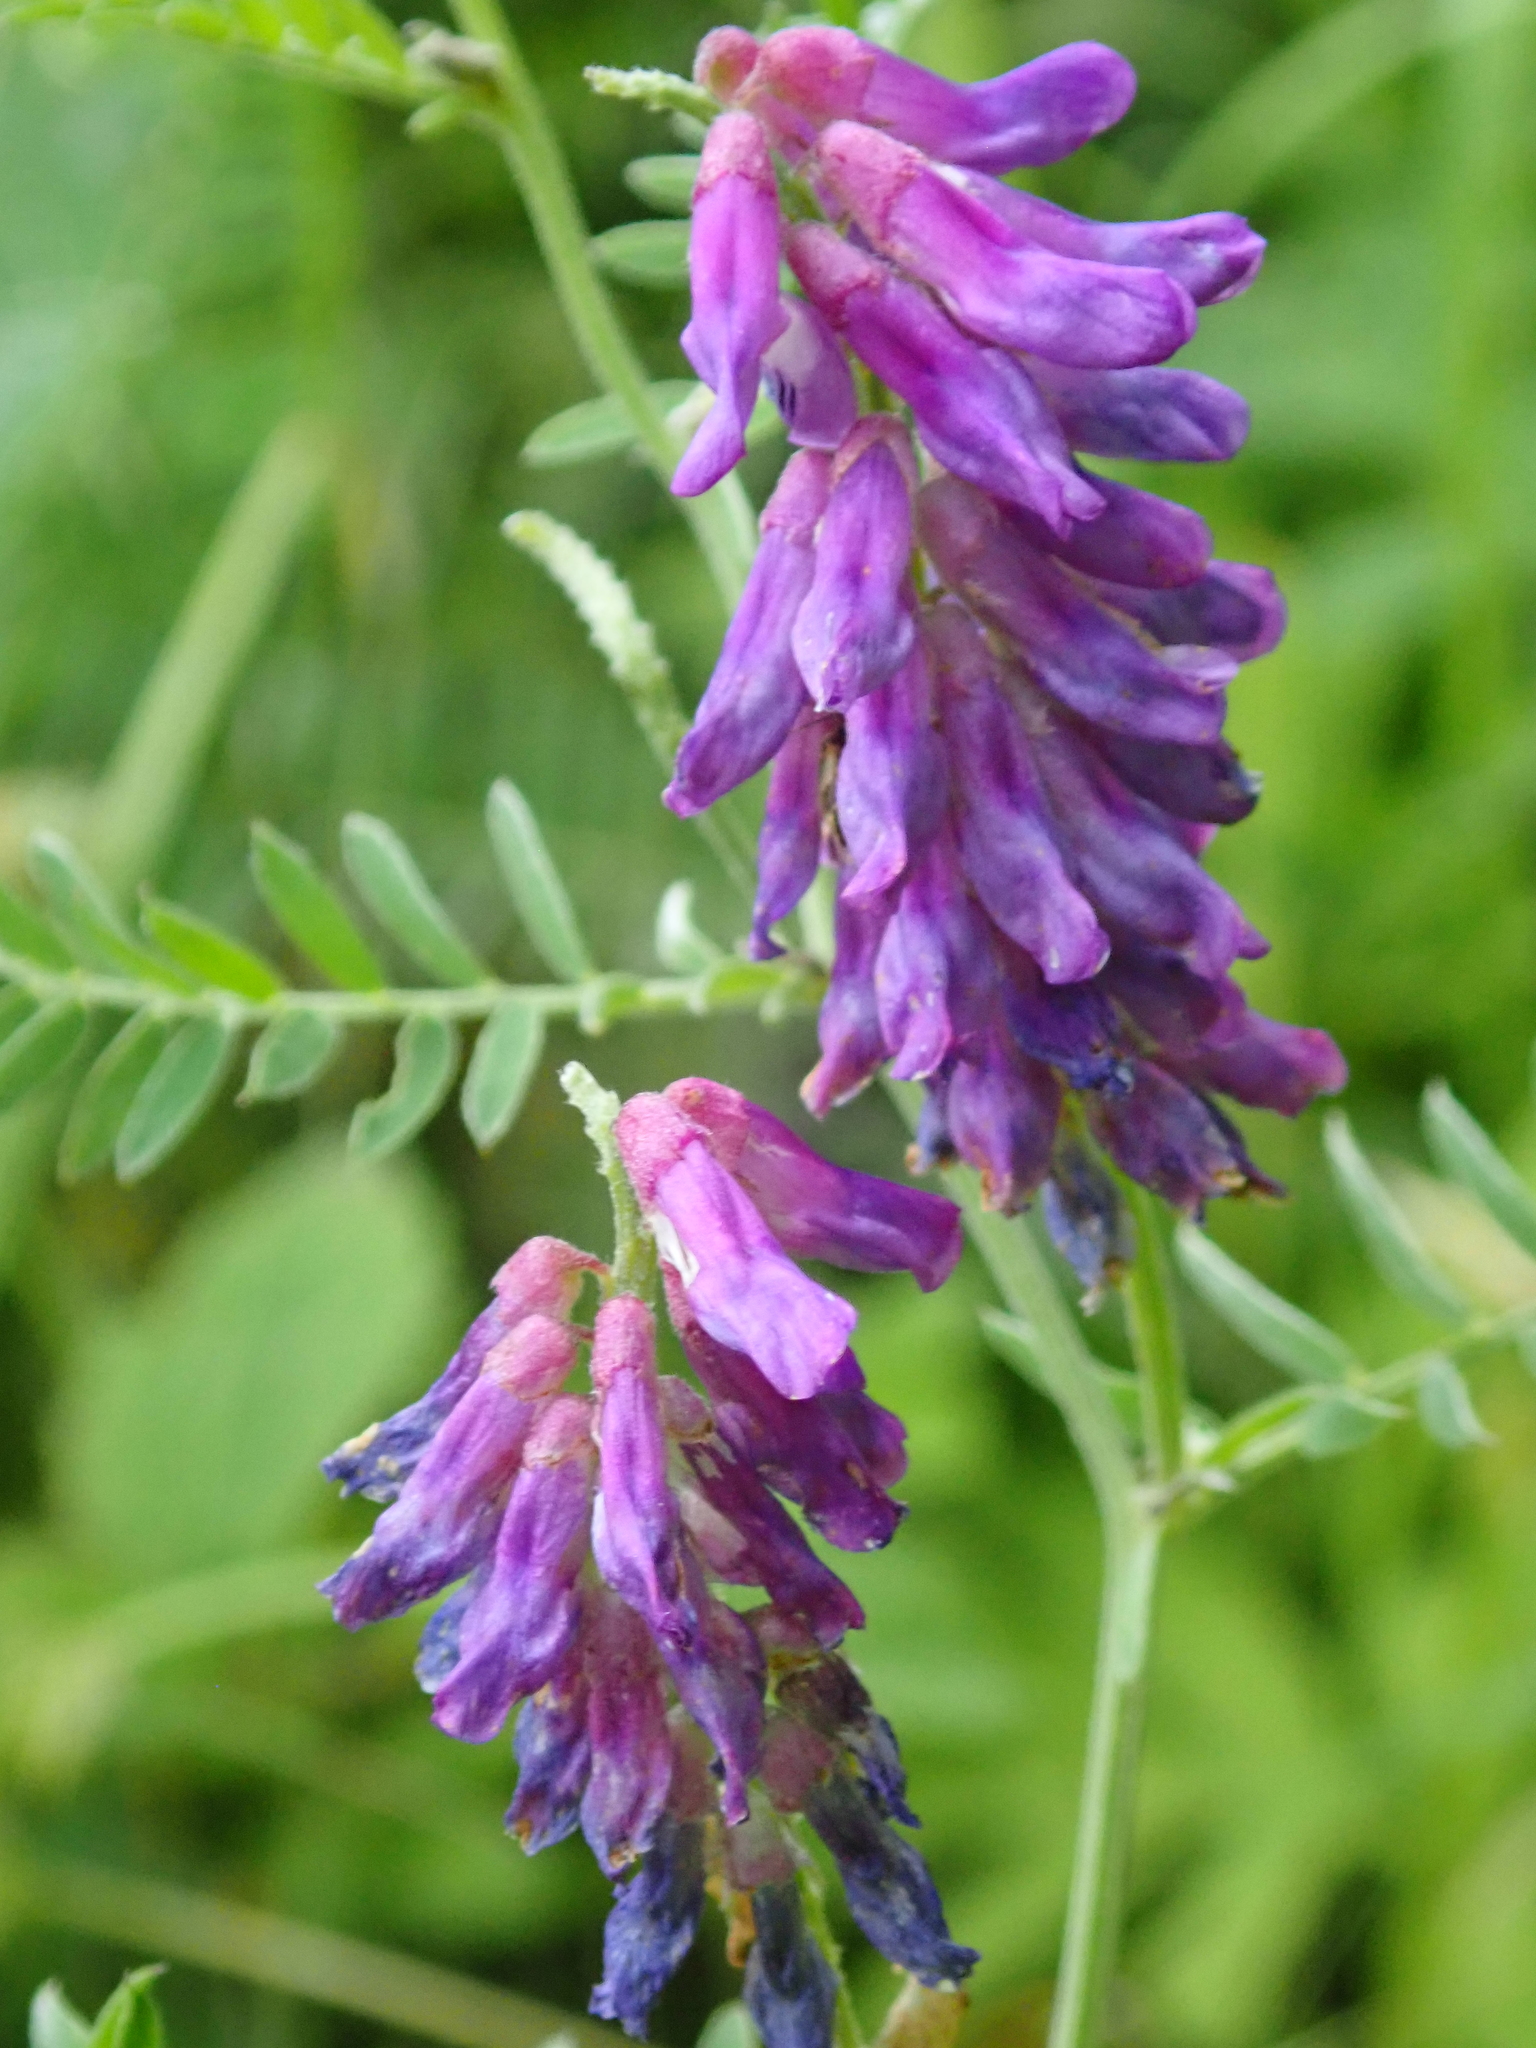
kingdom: Plantae
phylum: Tracheophyta
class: Magnoliopsida
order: Fabales
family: Fabaceae
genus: Vicia
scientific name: Vicia cracca
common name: Bird vetch
